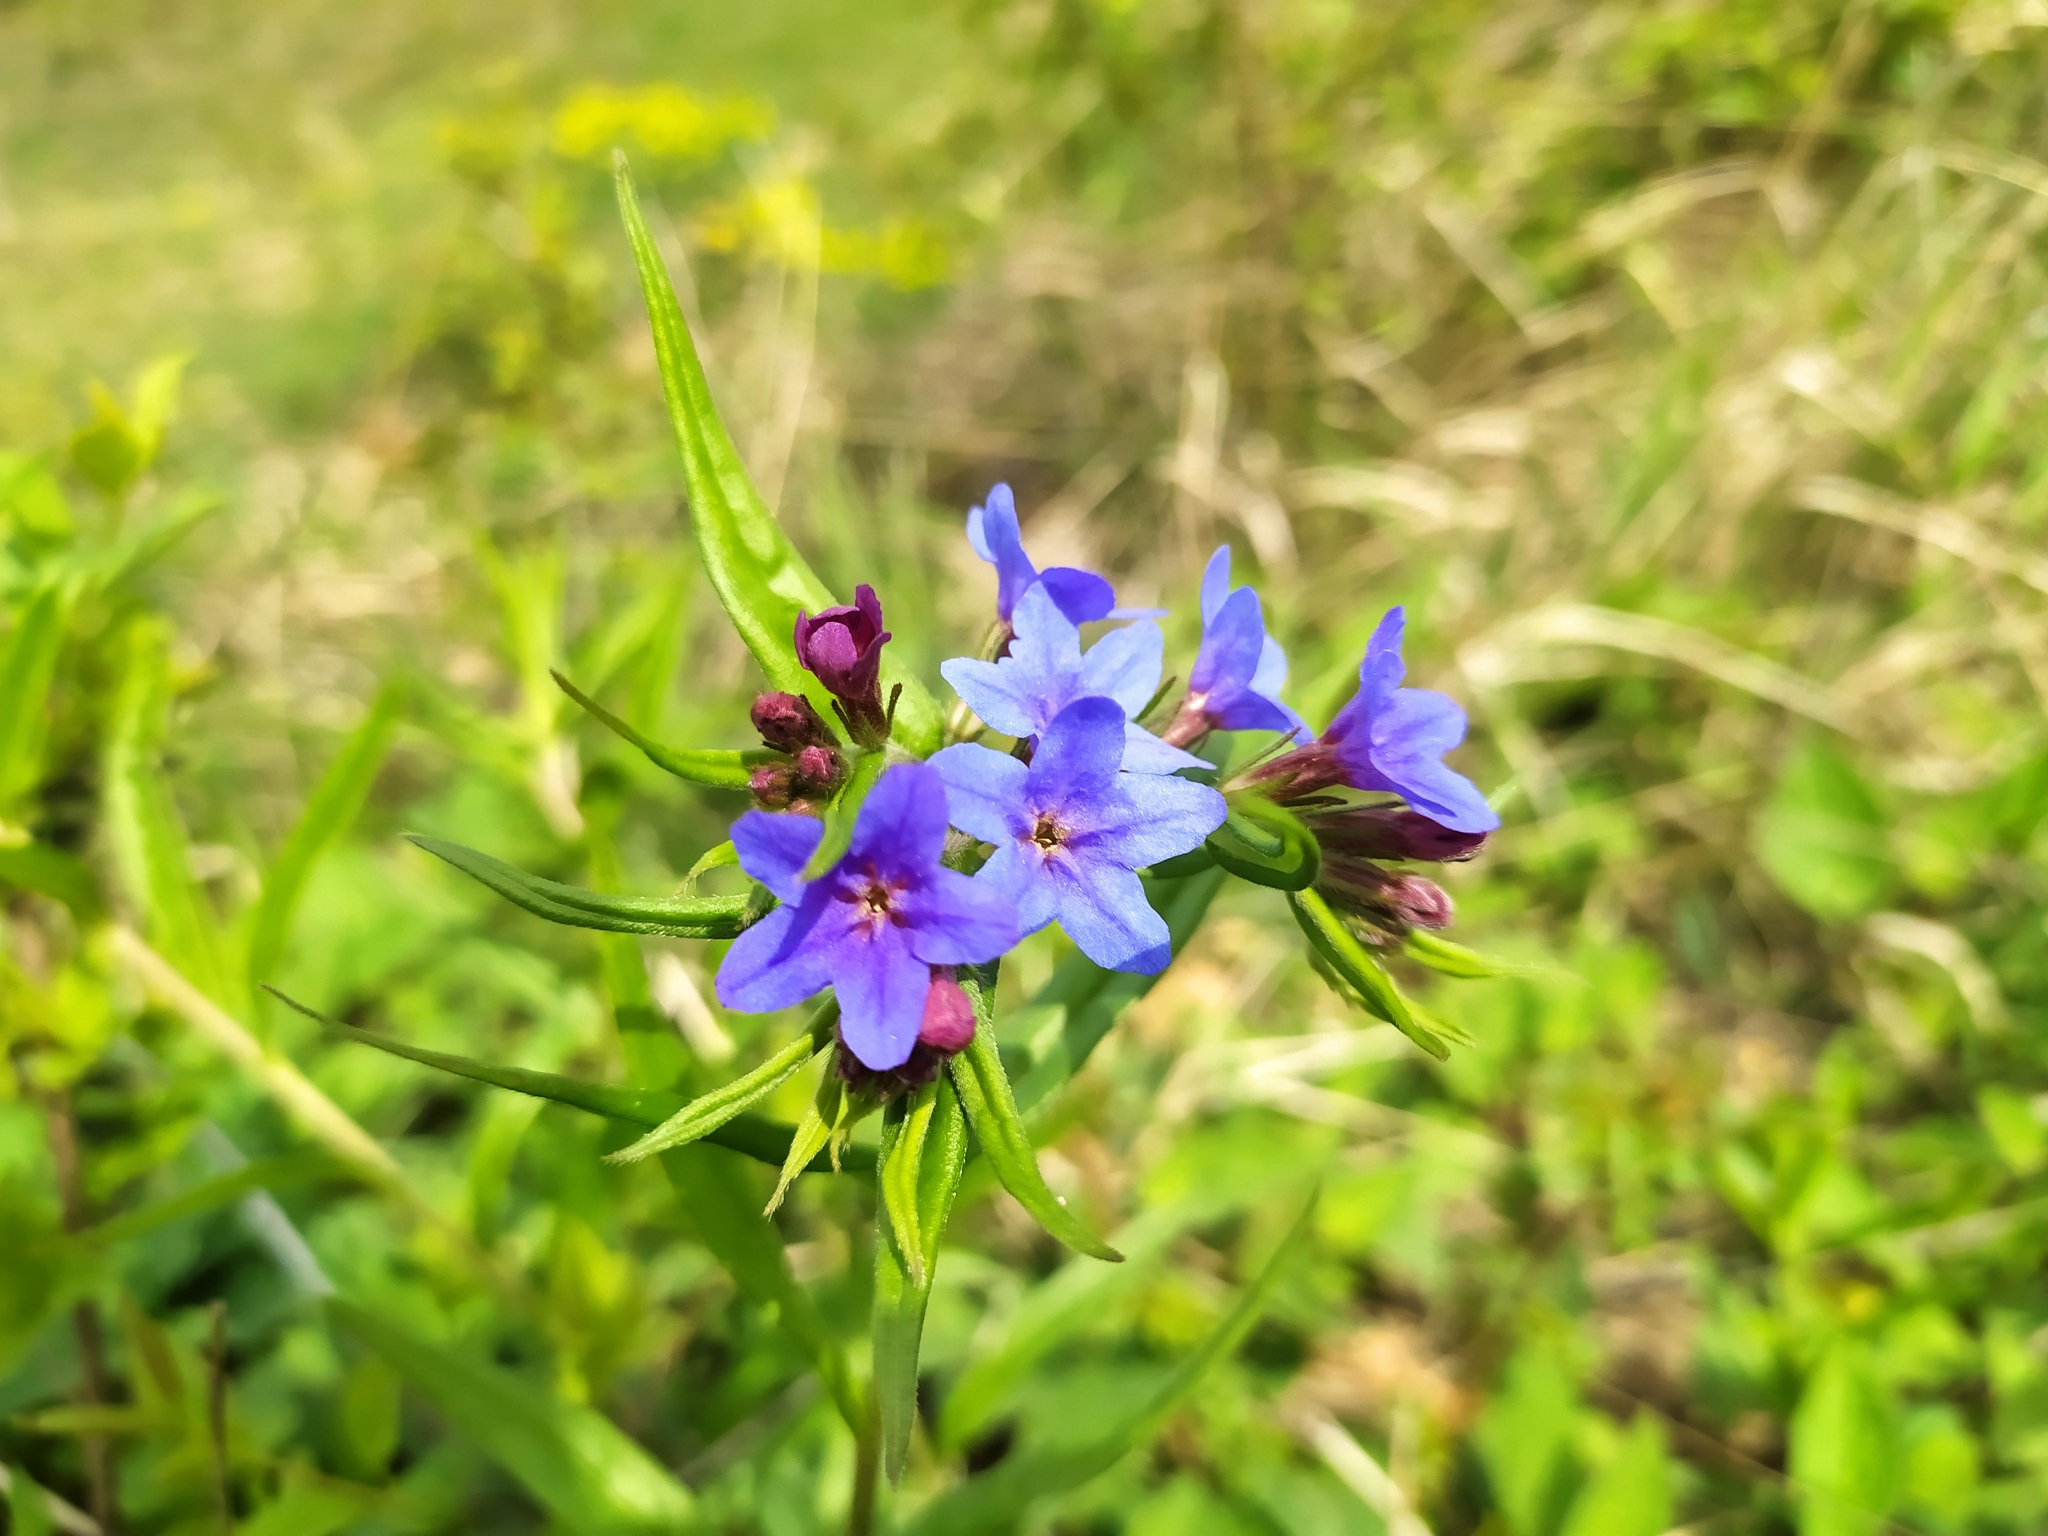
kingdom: Plantae
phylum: Tracheophyta
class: Magnoliopsida
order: Boraginales
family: Boraginaceae
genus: Aegonychon
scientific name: Aegonychon purpurocaeruleum
